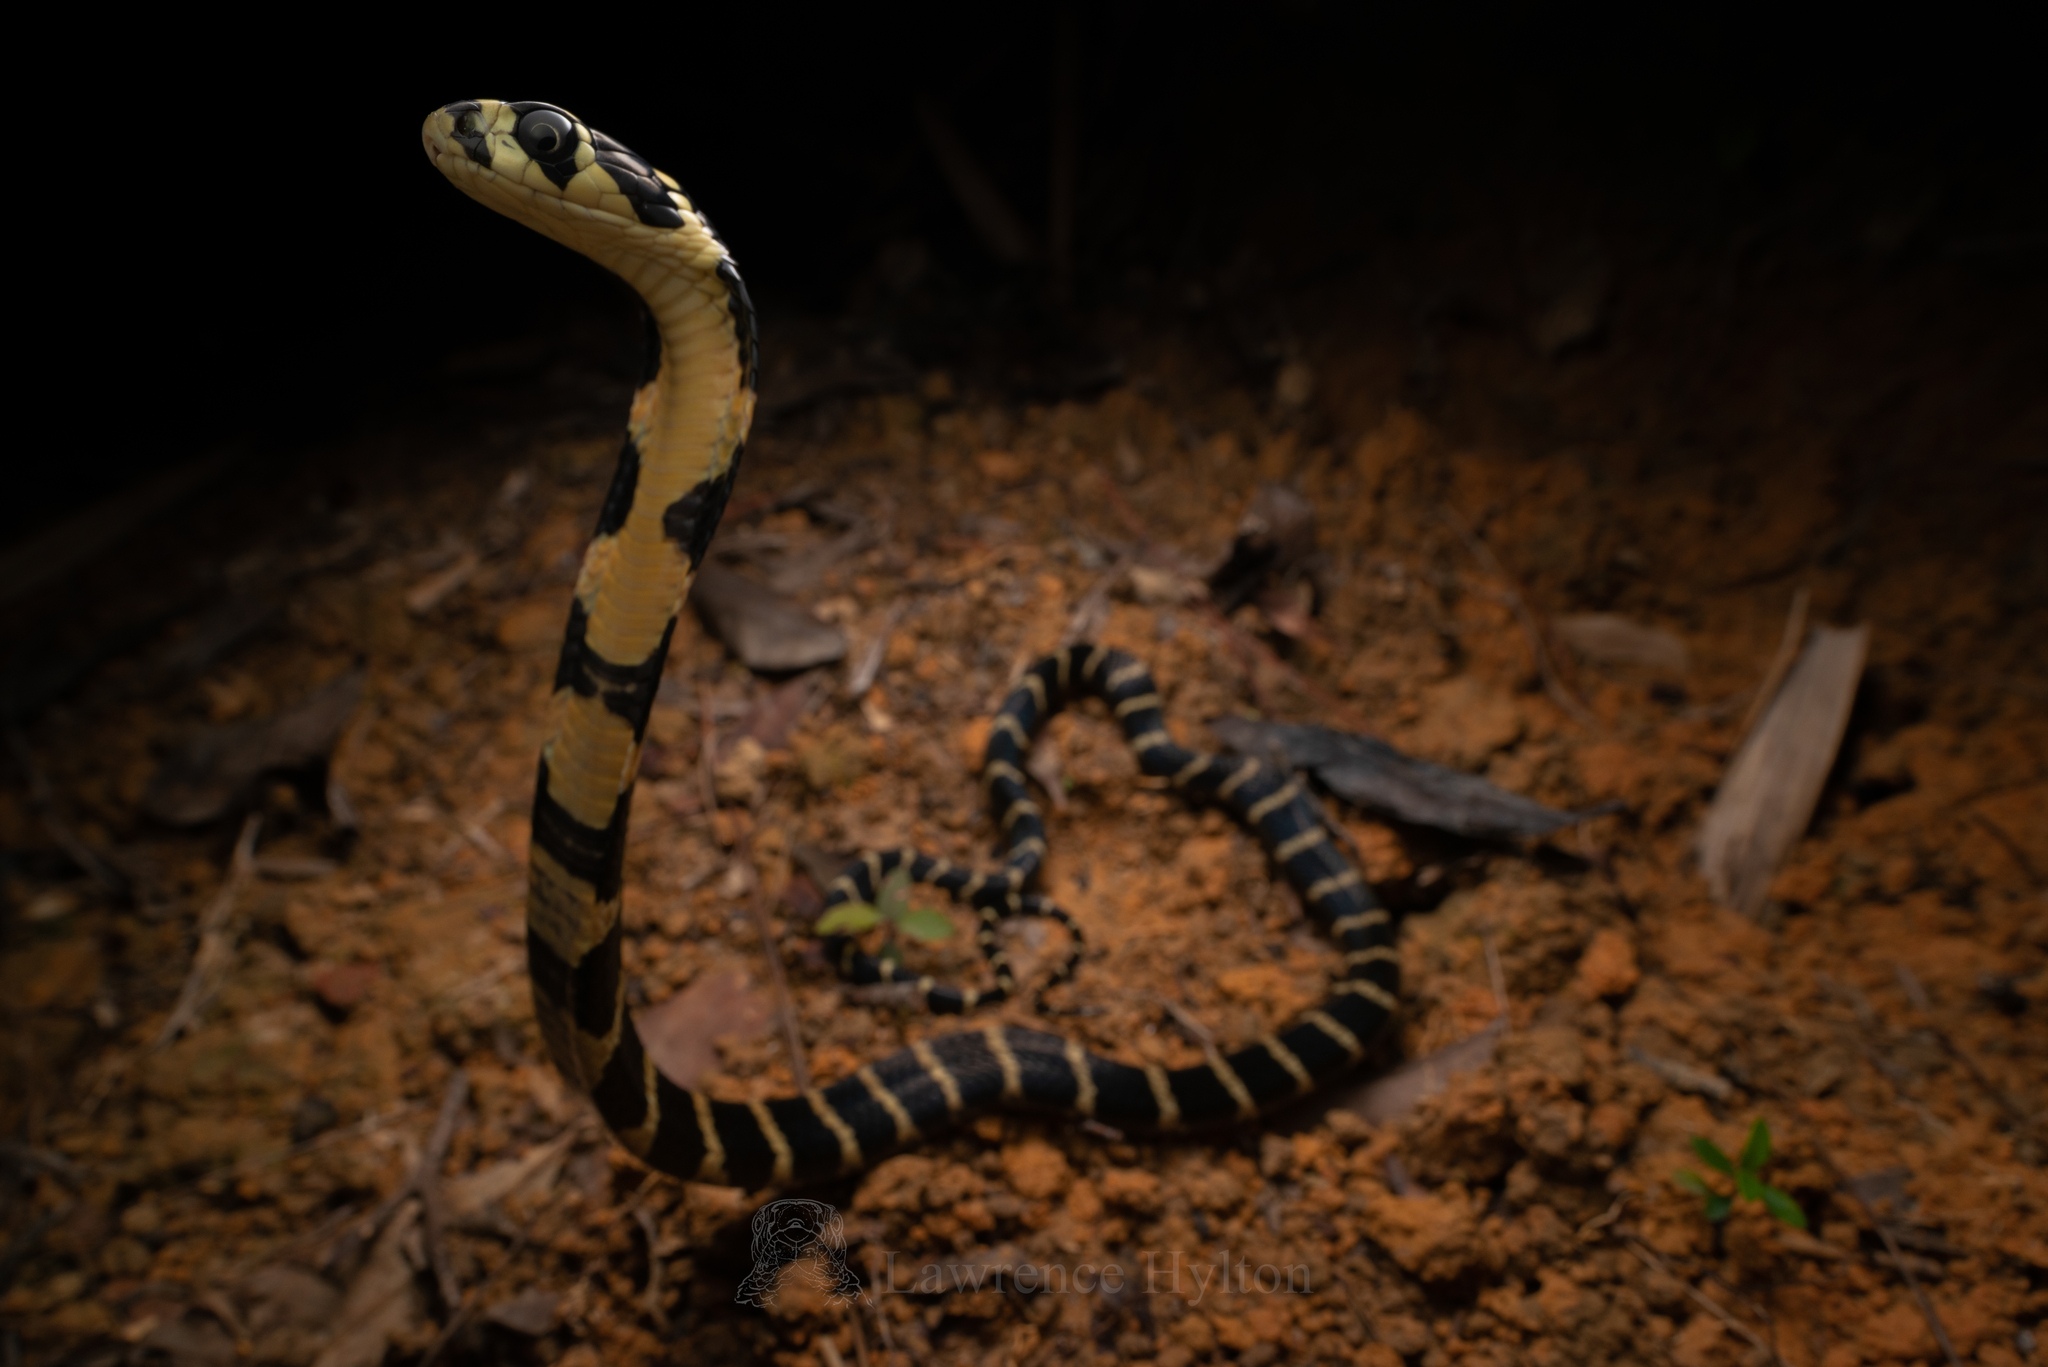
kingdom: Animalia
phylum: Chordata
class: Squamata
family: Elapidae
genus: Ophiophagus
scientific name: Ophiophagus hannah
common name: Hamadryad
